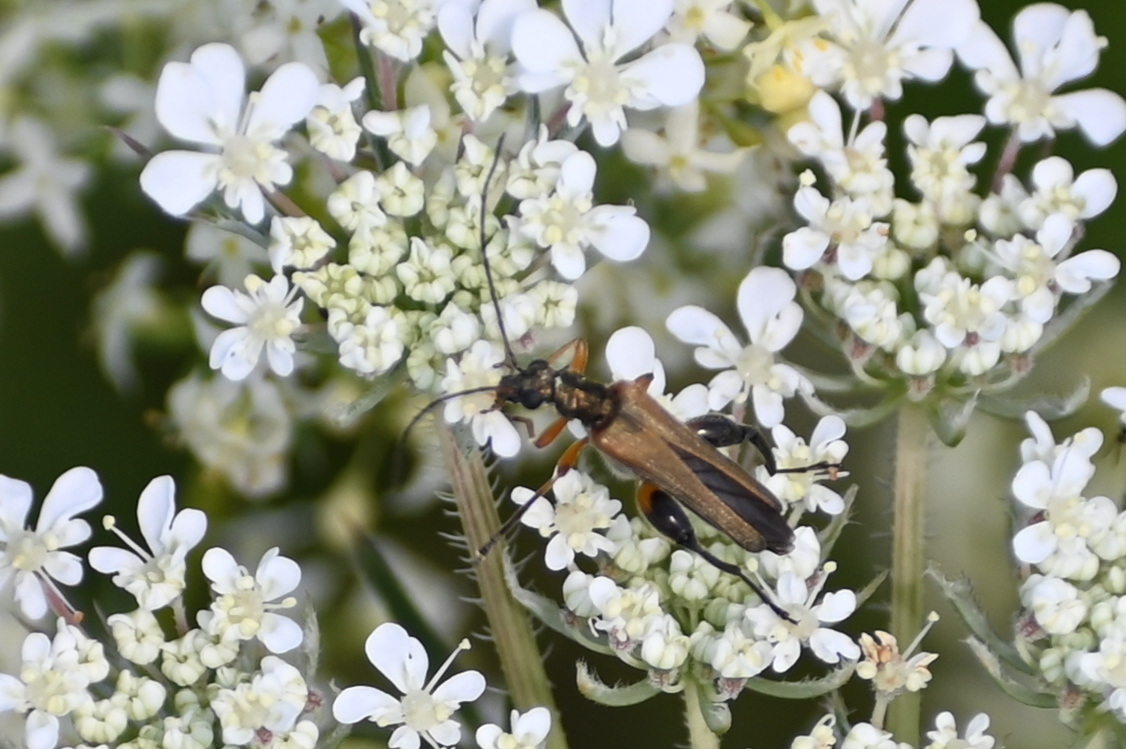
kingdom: Animalia
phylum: Arthropoda
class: Insecta
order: Coleoptera
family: Oedemeridae
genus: Oedemera
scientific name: Oedemera podagrariae
